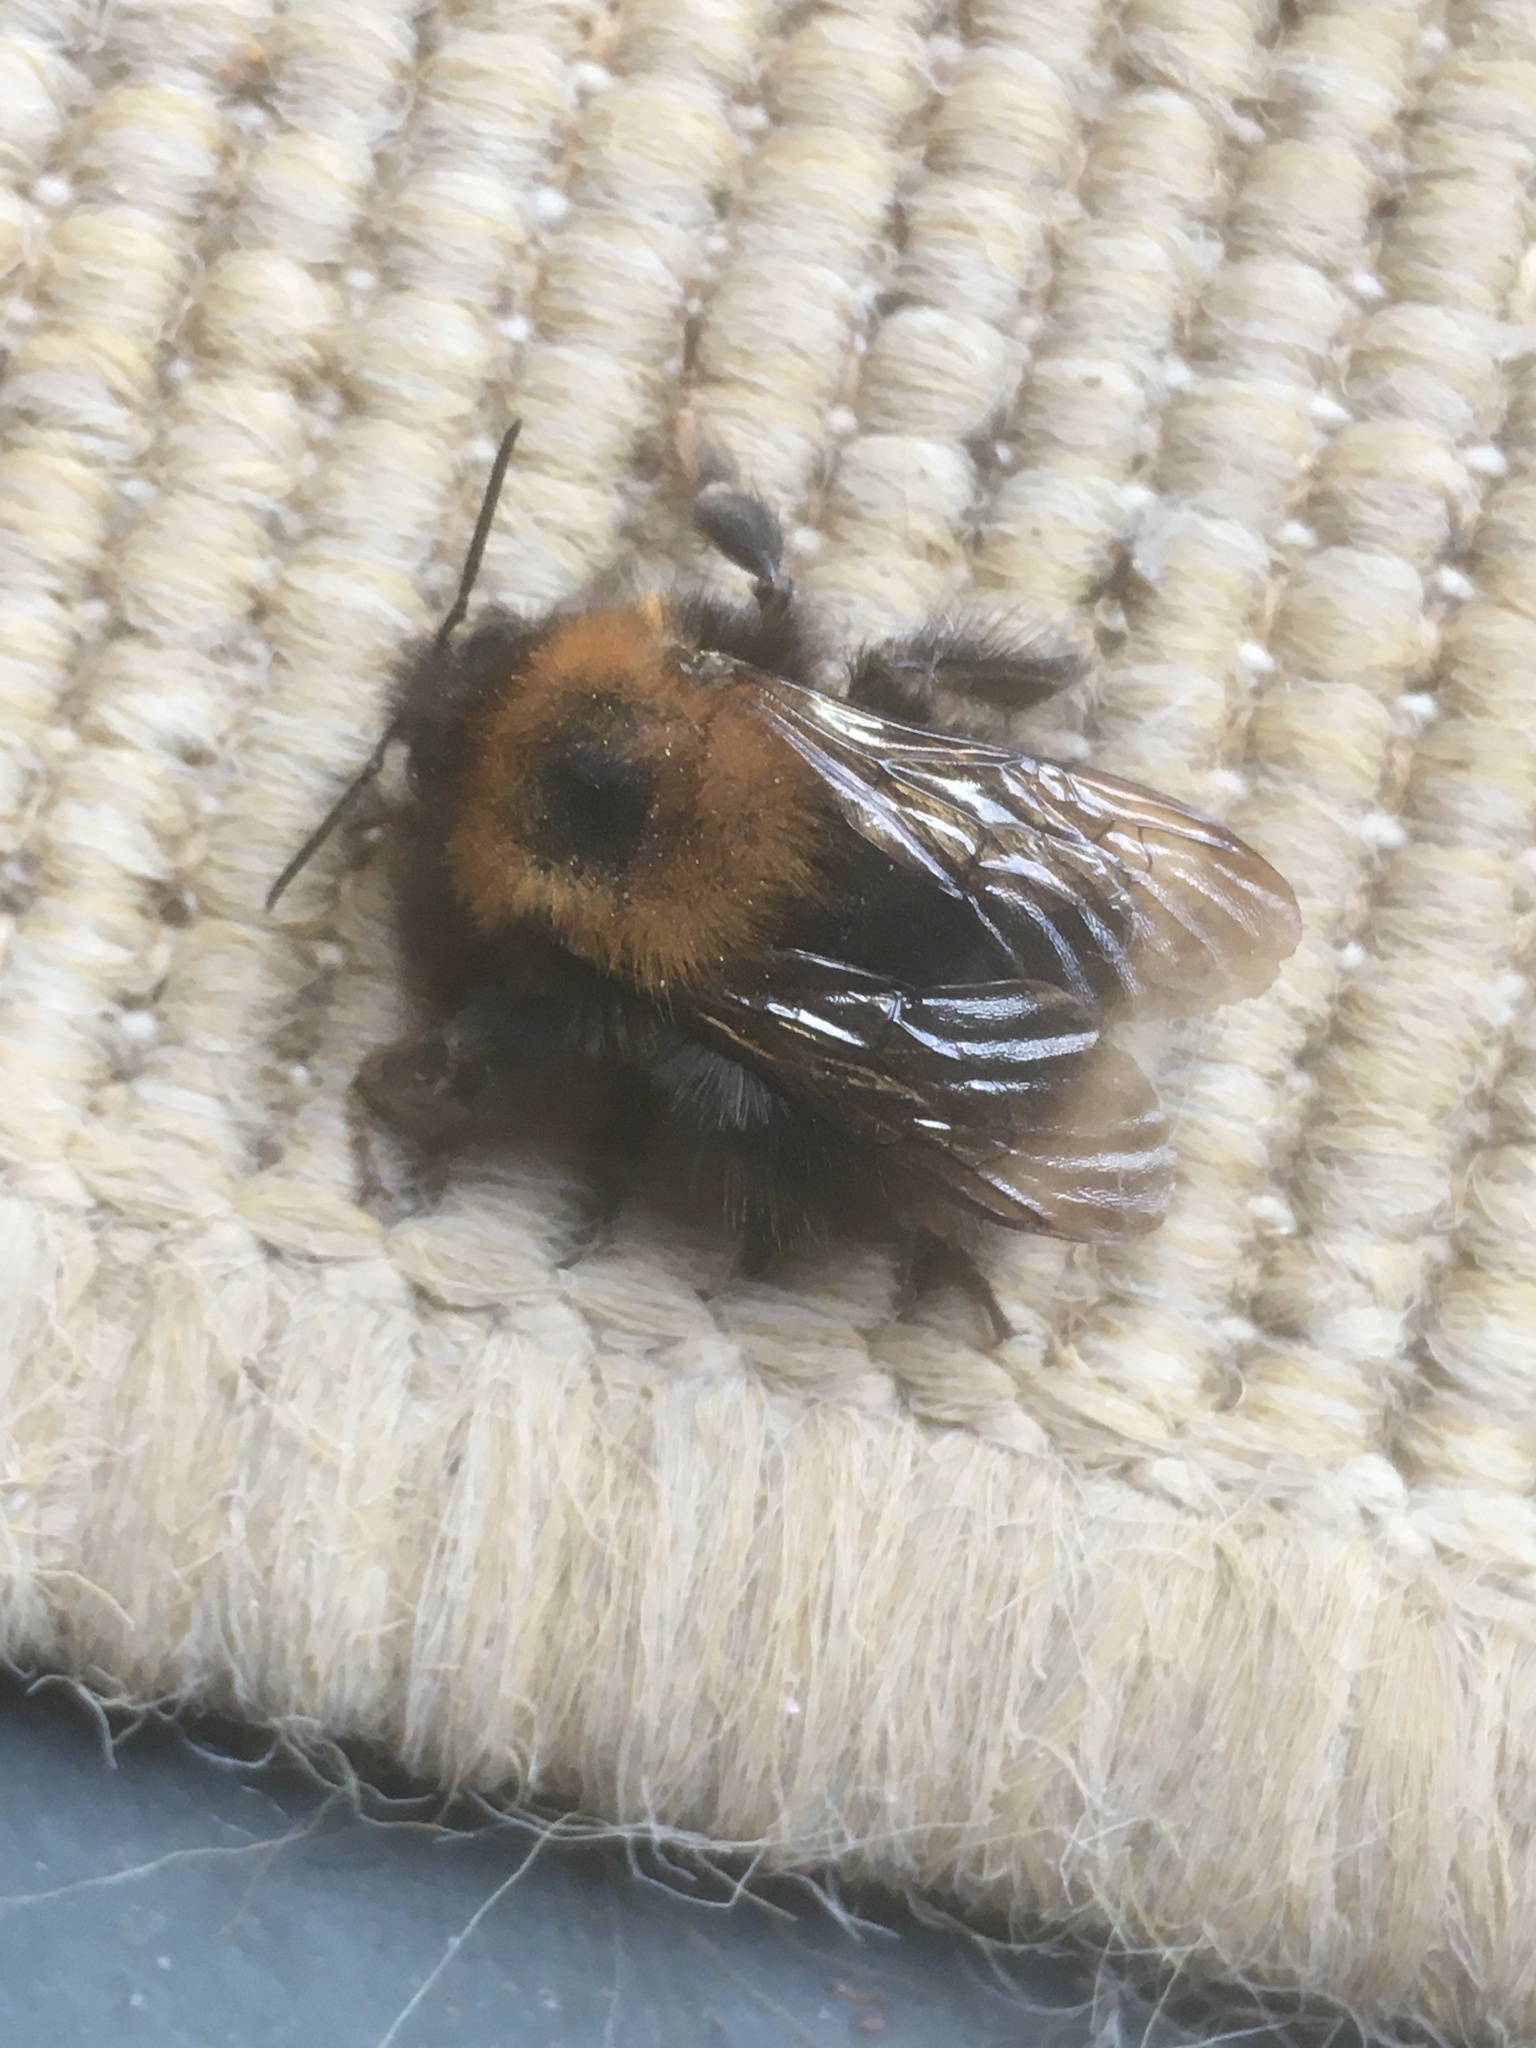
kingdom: Animalia
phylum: Arthropoda
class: Insecta
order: Hymenoptera
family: Apidae
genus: Bombus
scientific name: Bombus hypnorum
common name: New garden bumblebee
